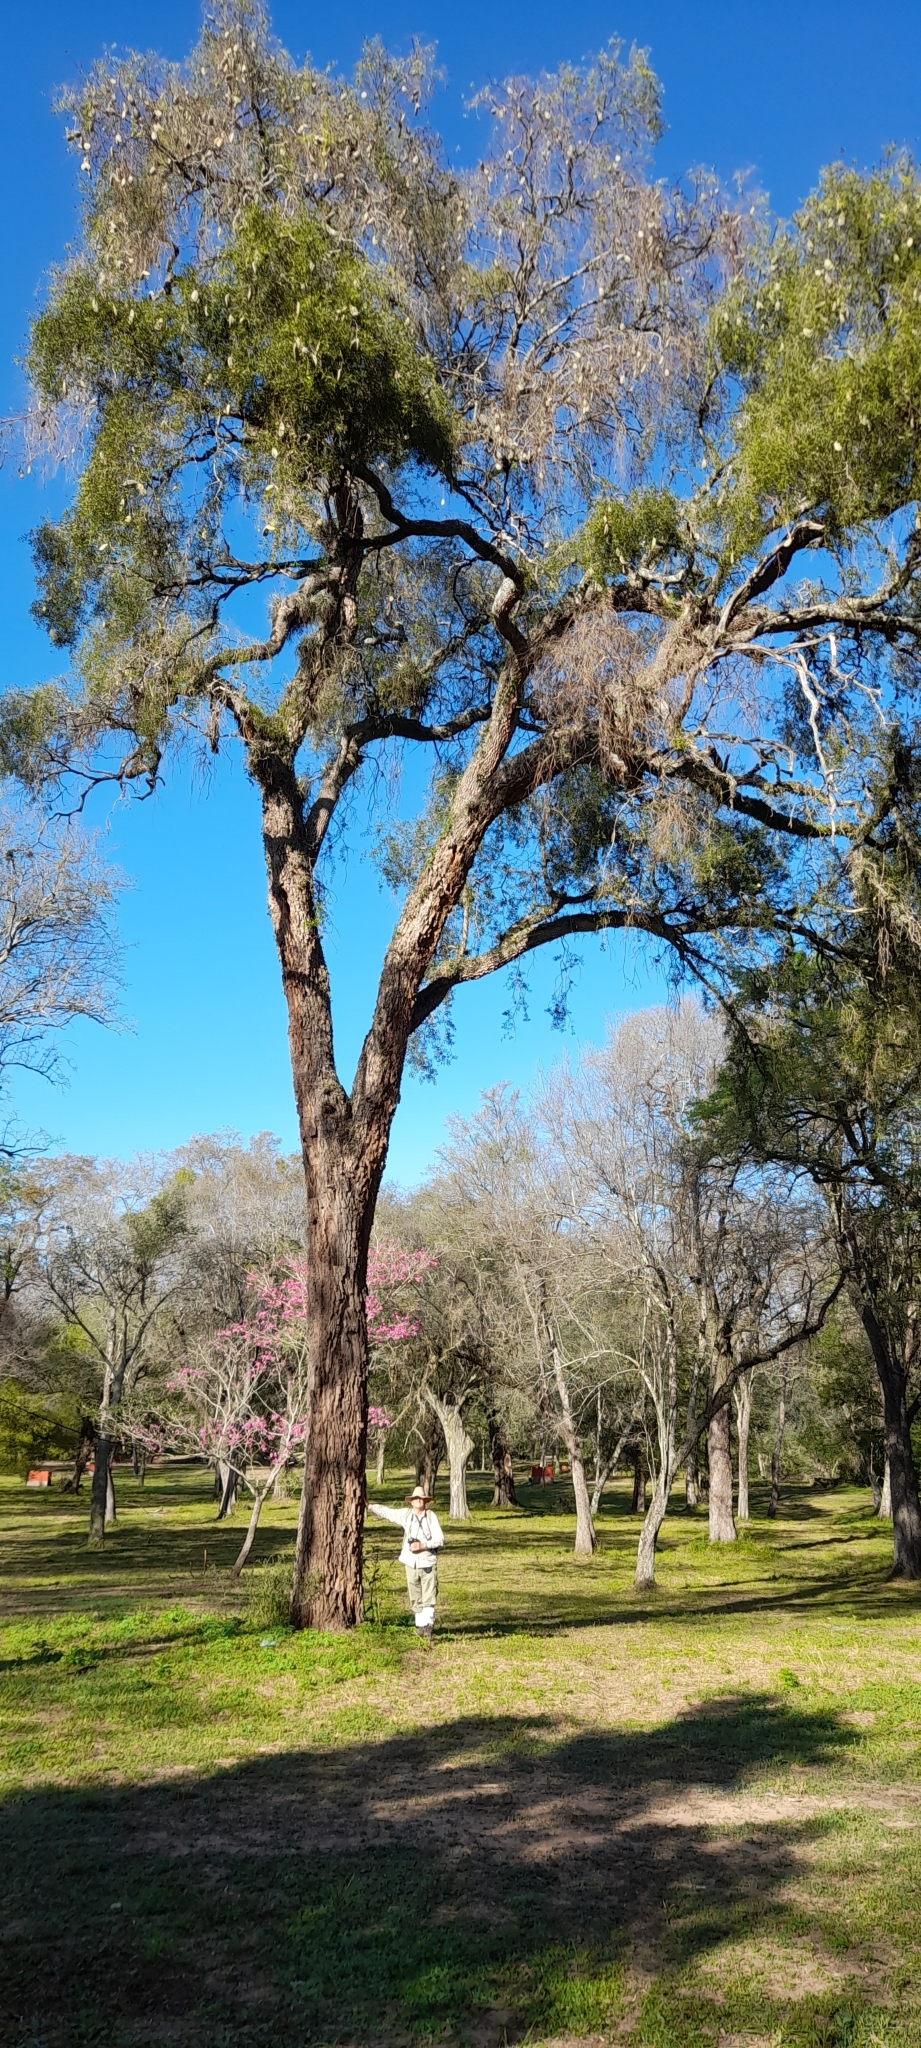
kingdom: Plantae
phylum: Tracheophyta
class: Magnoliopsida
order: Gentianales
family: Apocynaceae
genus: Aspidosperma
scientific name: Aspidosperma quebracho-blanco
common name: White quebracho
